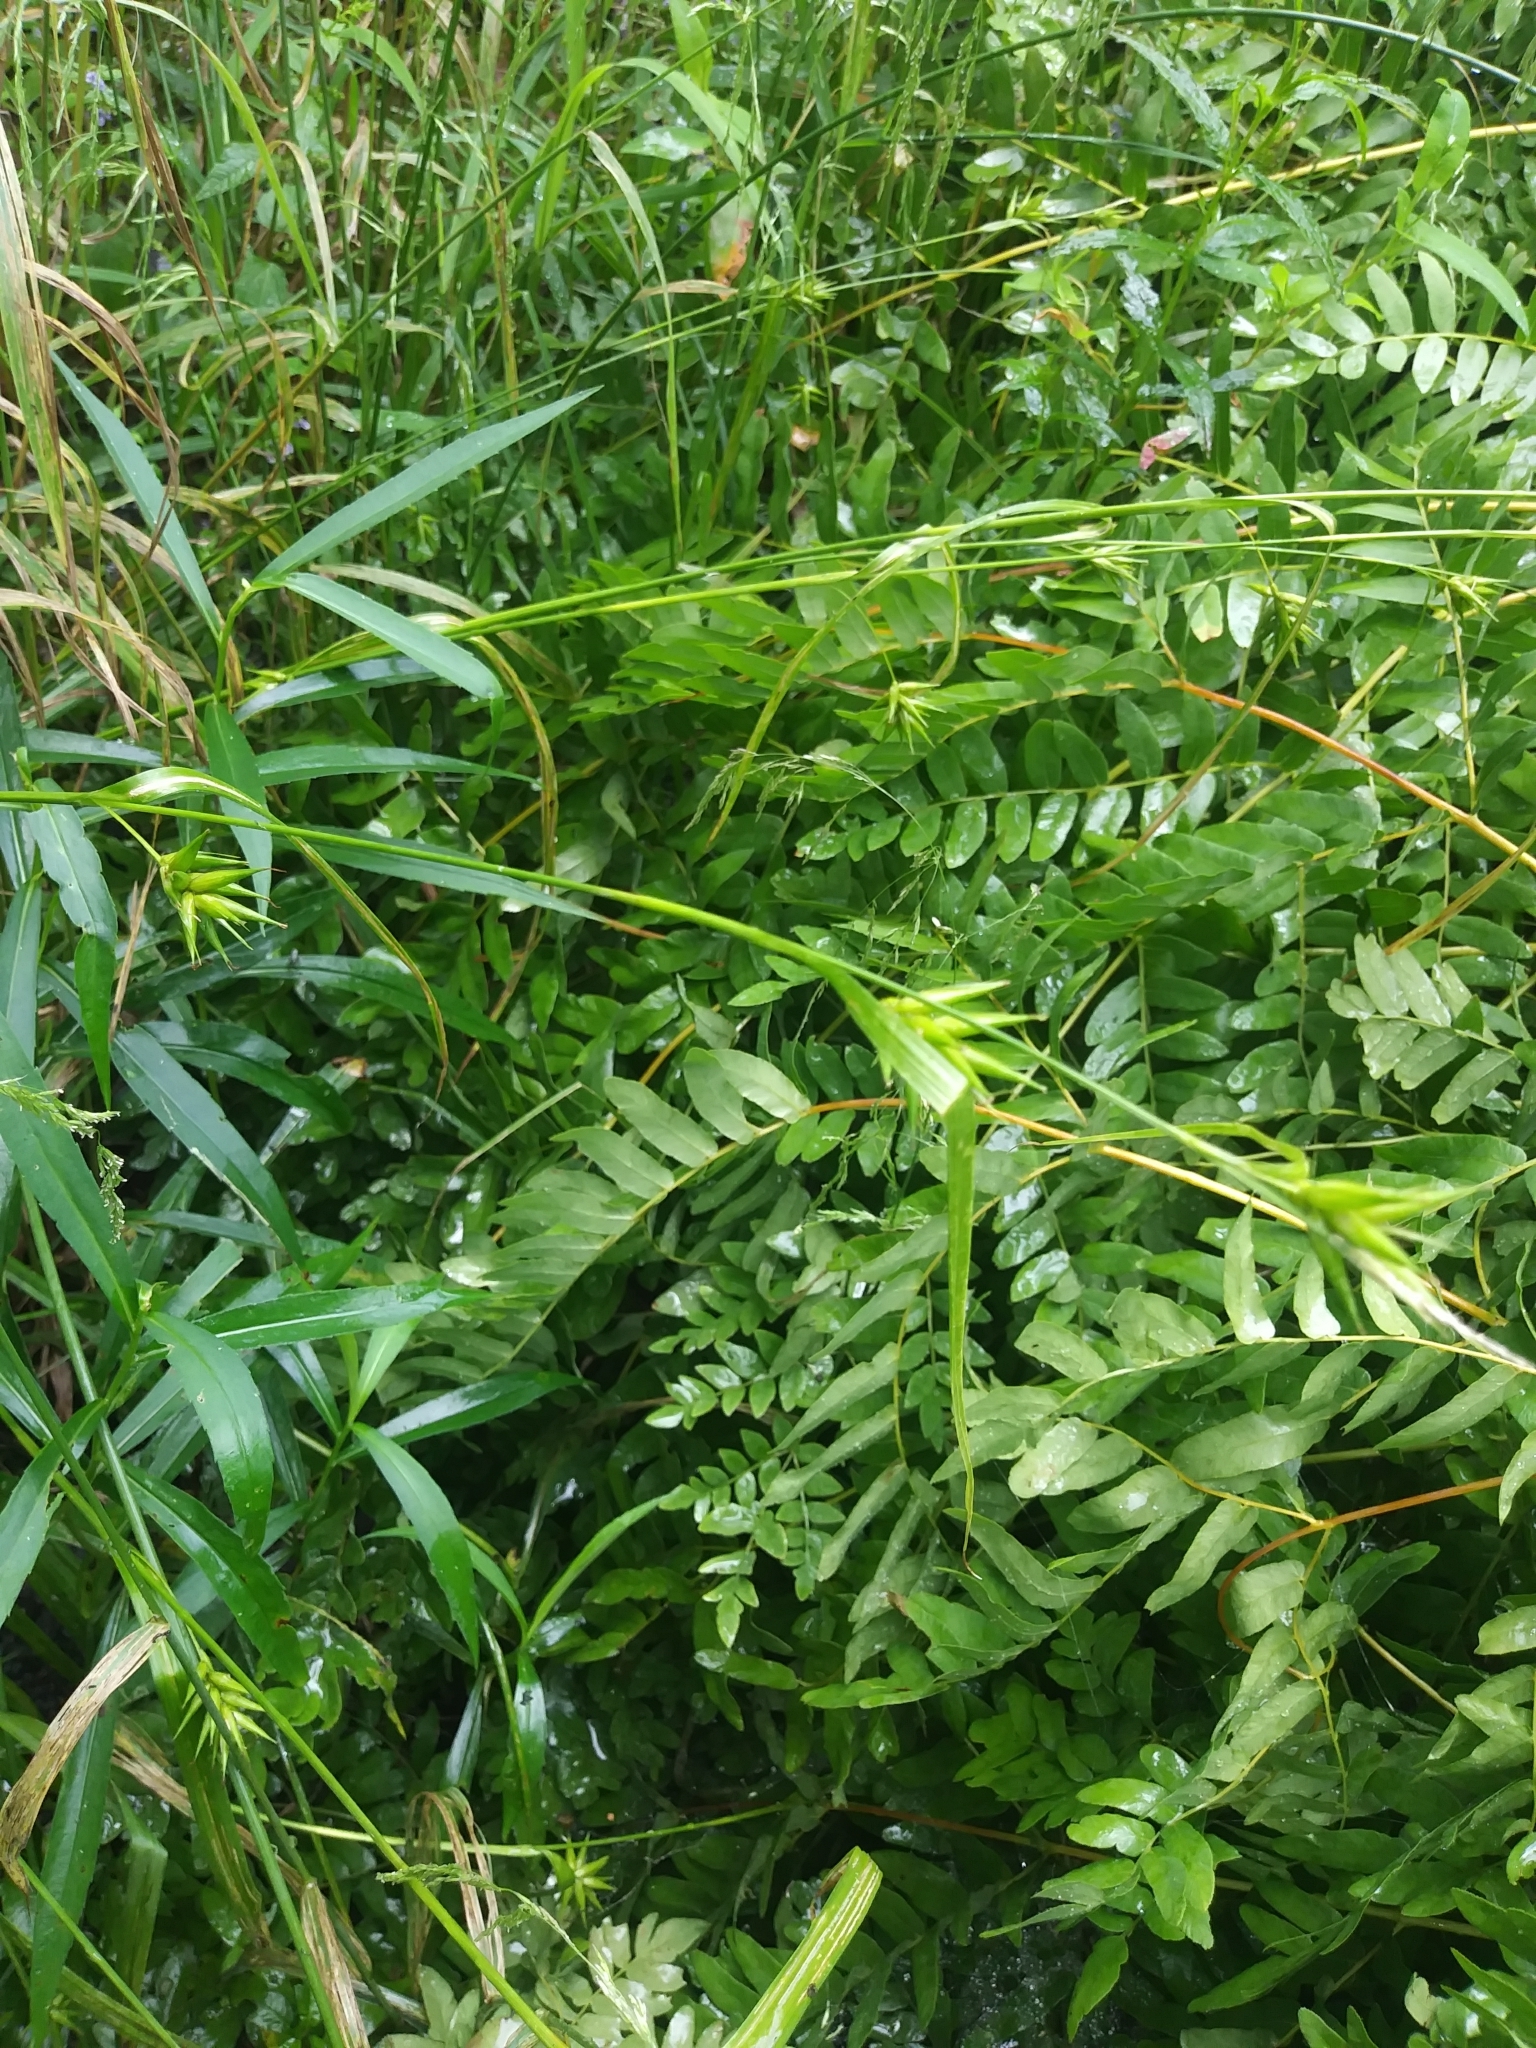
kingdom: Plantae
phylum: Tracheophyta
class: Liliopsida
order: Poales
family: Cyperaceae
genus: Carex
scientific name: Carex folliculata
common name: Northern long sedge
